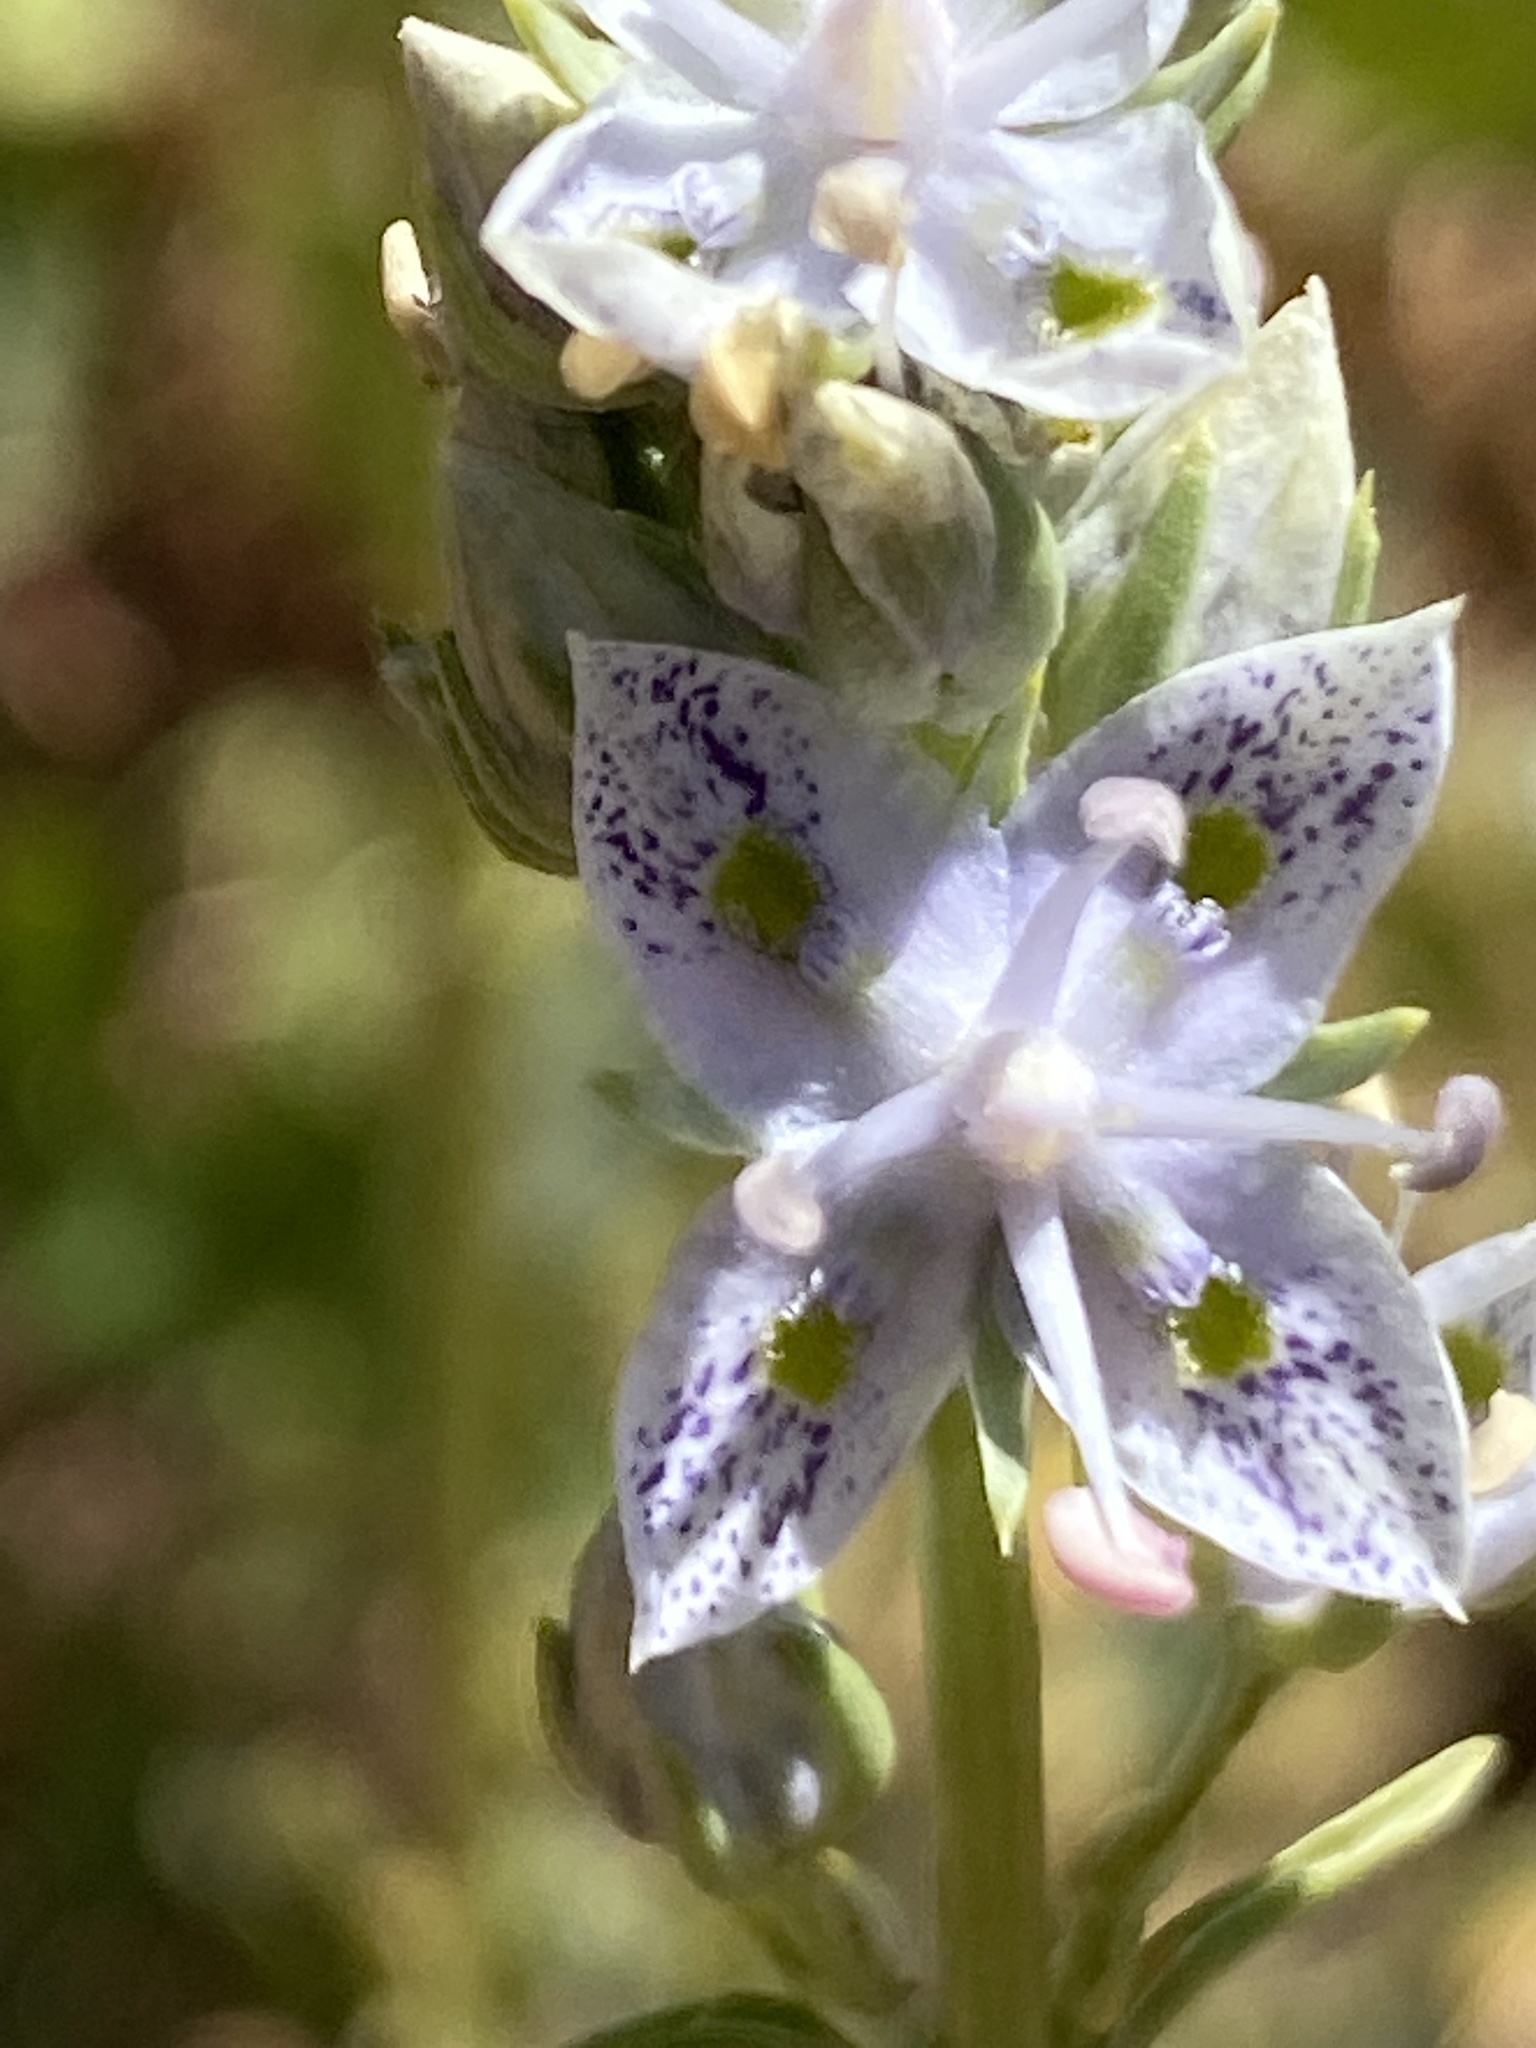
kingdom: Plantae
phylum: Tracheophyta
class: Magnoliopsida
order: Gentianales
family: Gentianaceae
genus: Frasera
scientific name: Frasera albicaulis
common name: Cusick's frasera
